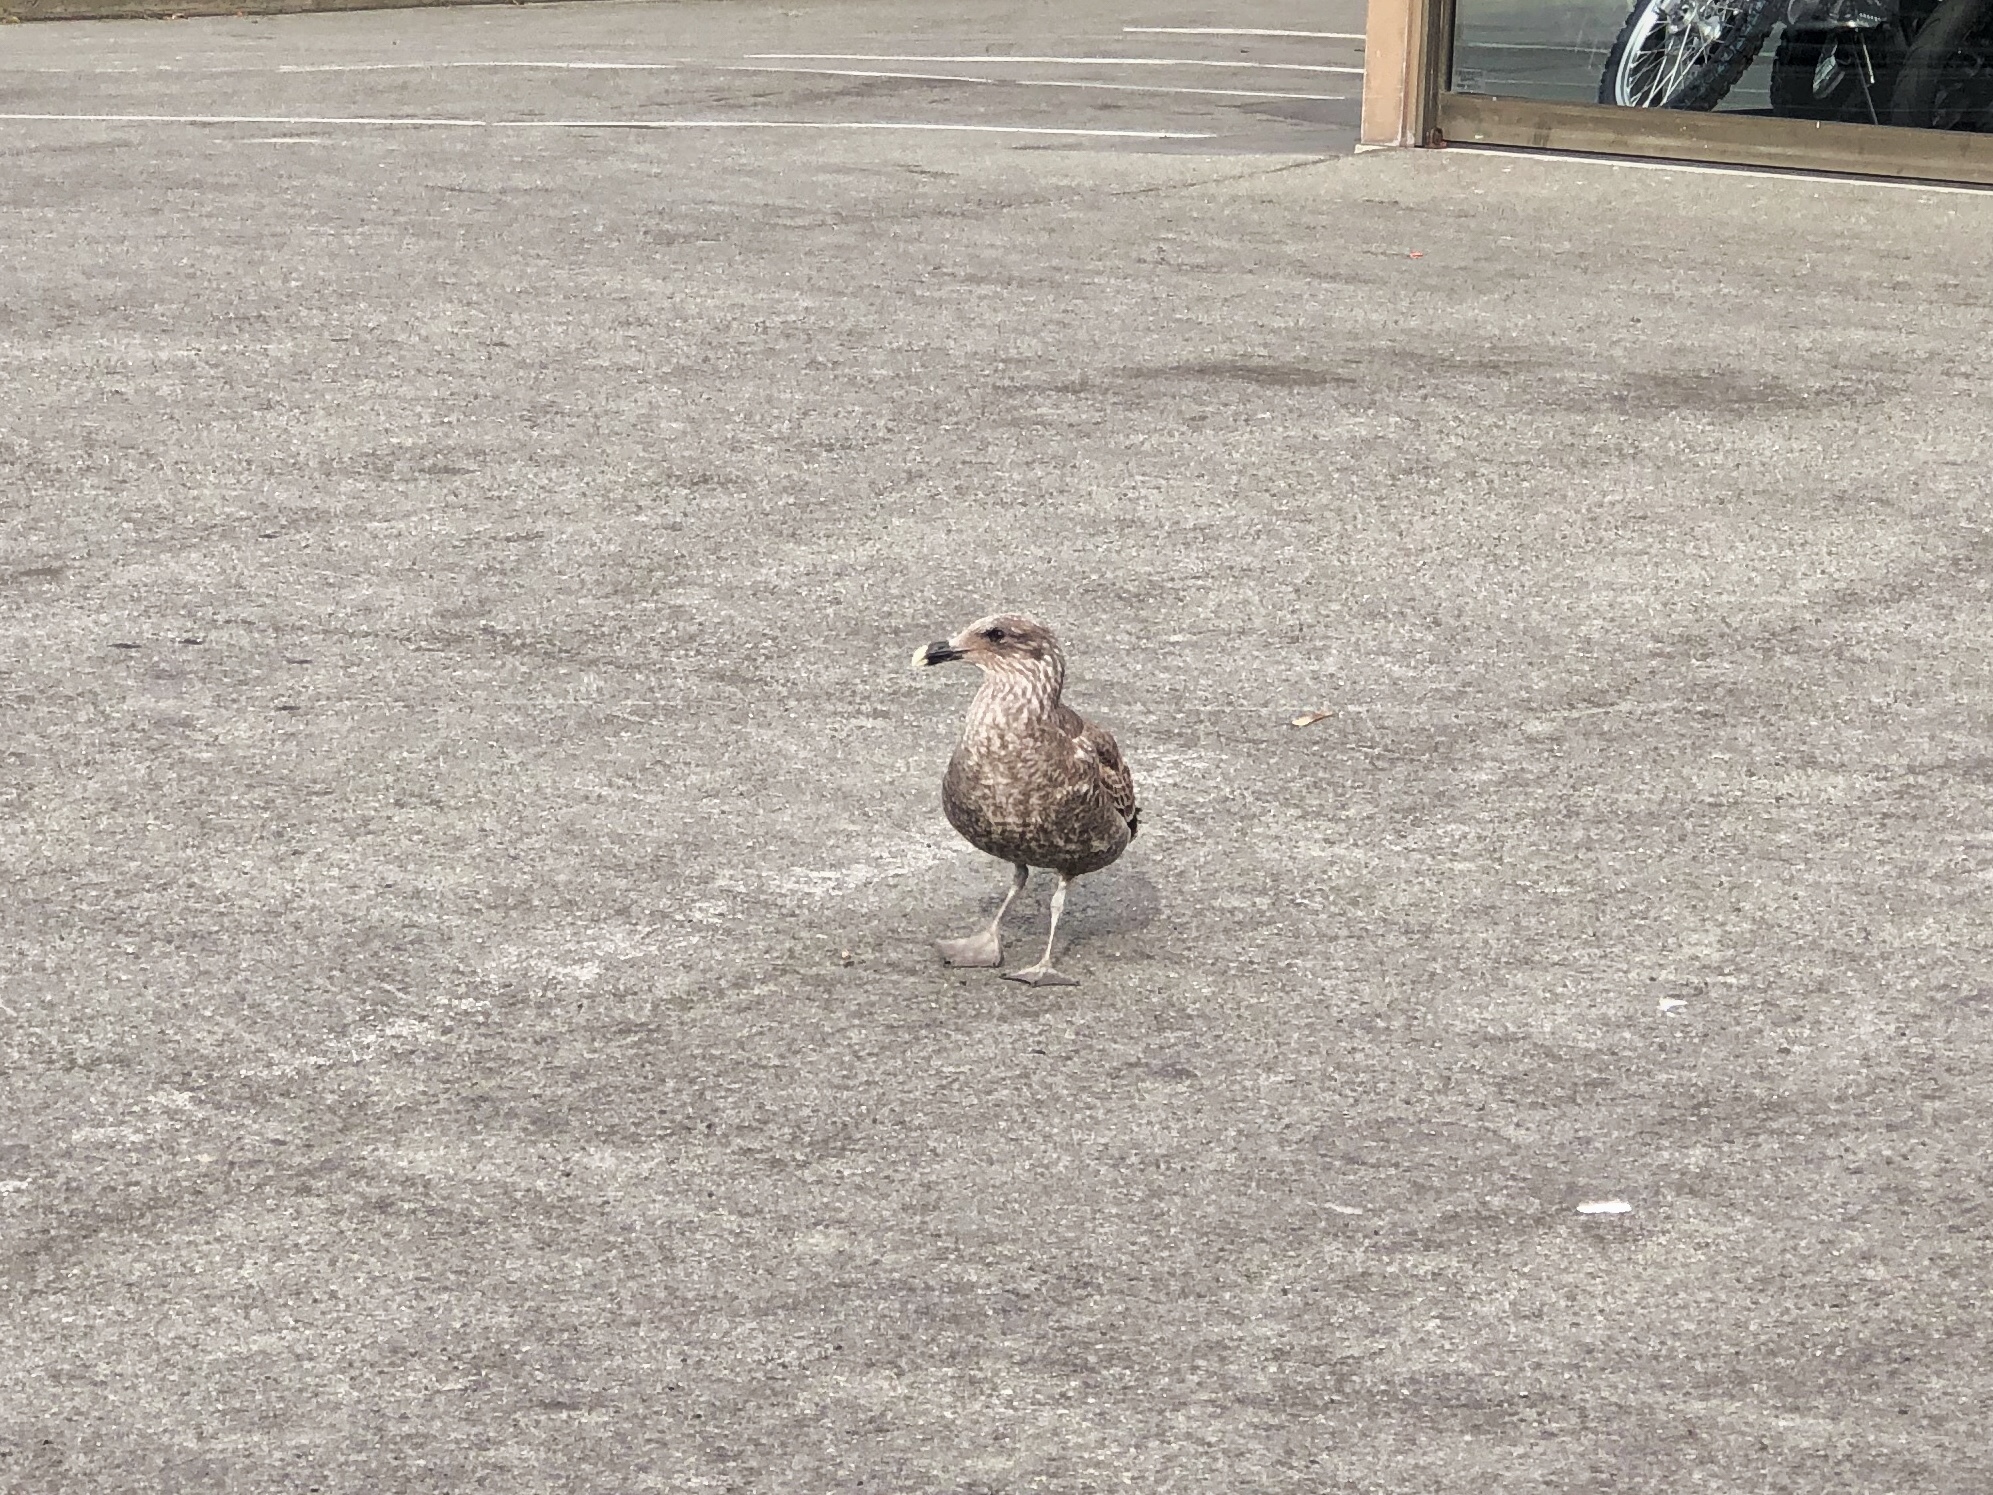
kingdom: Animalia
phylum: Chordata
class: Aves
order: Charadriiformes
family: Laridae
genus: Larus
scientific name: Larus dominicanus
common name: Kelp gull
